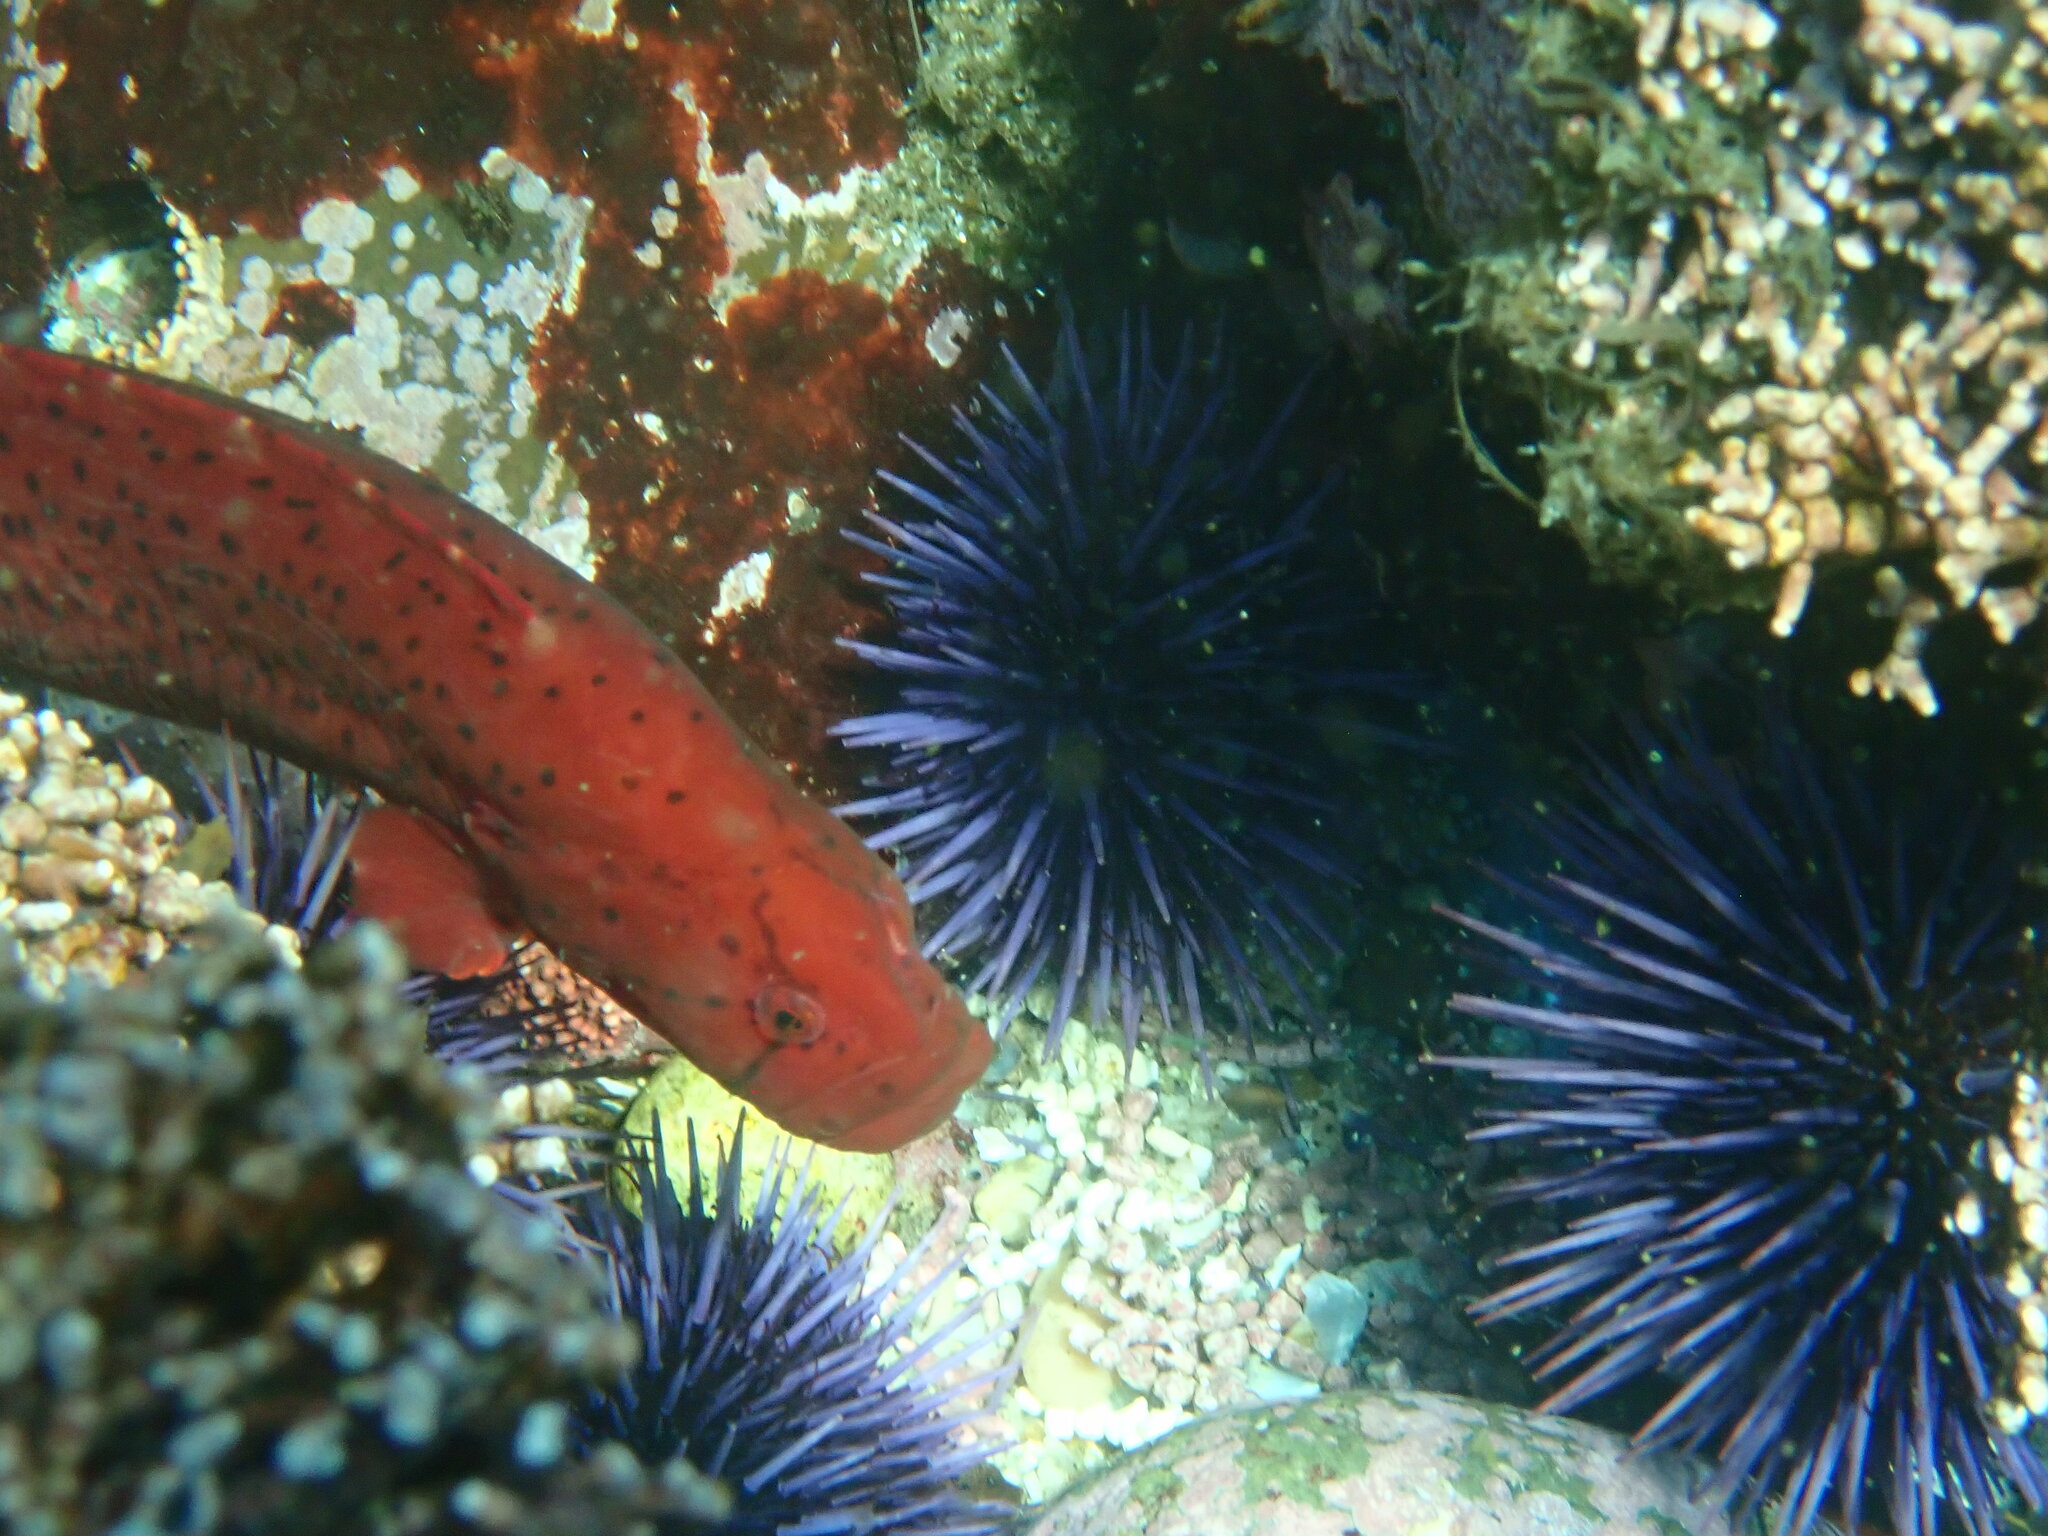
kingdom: Animalia
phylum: Chordata
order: Perciformes
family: Pholidae
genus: Apodichthys
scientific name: Apodichthys flavidus
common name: Penpoint gunnel
